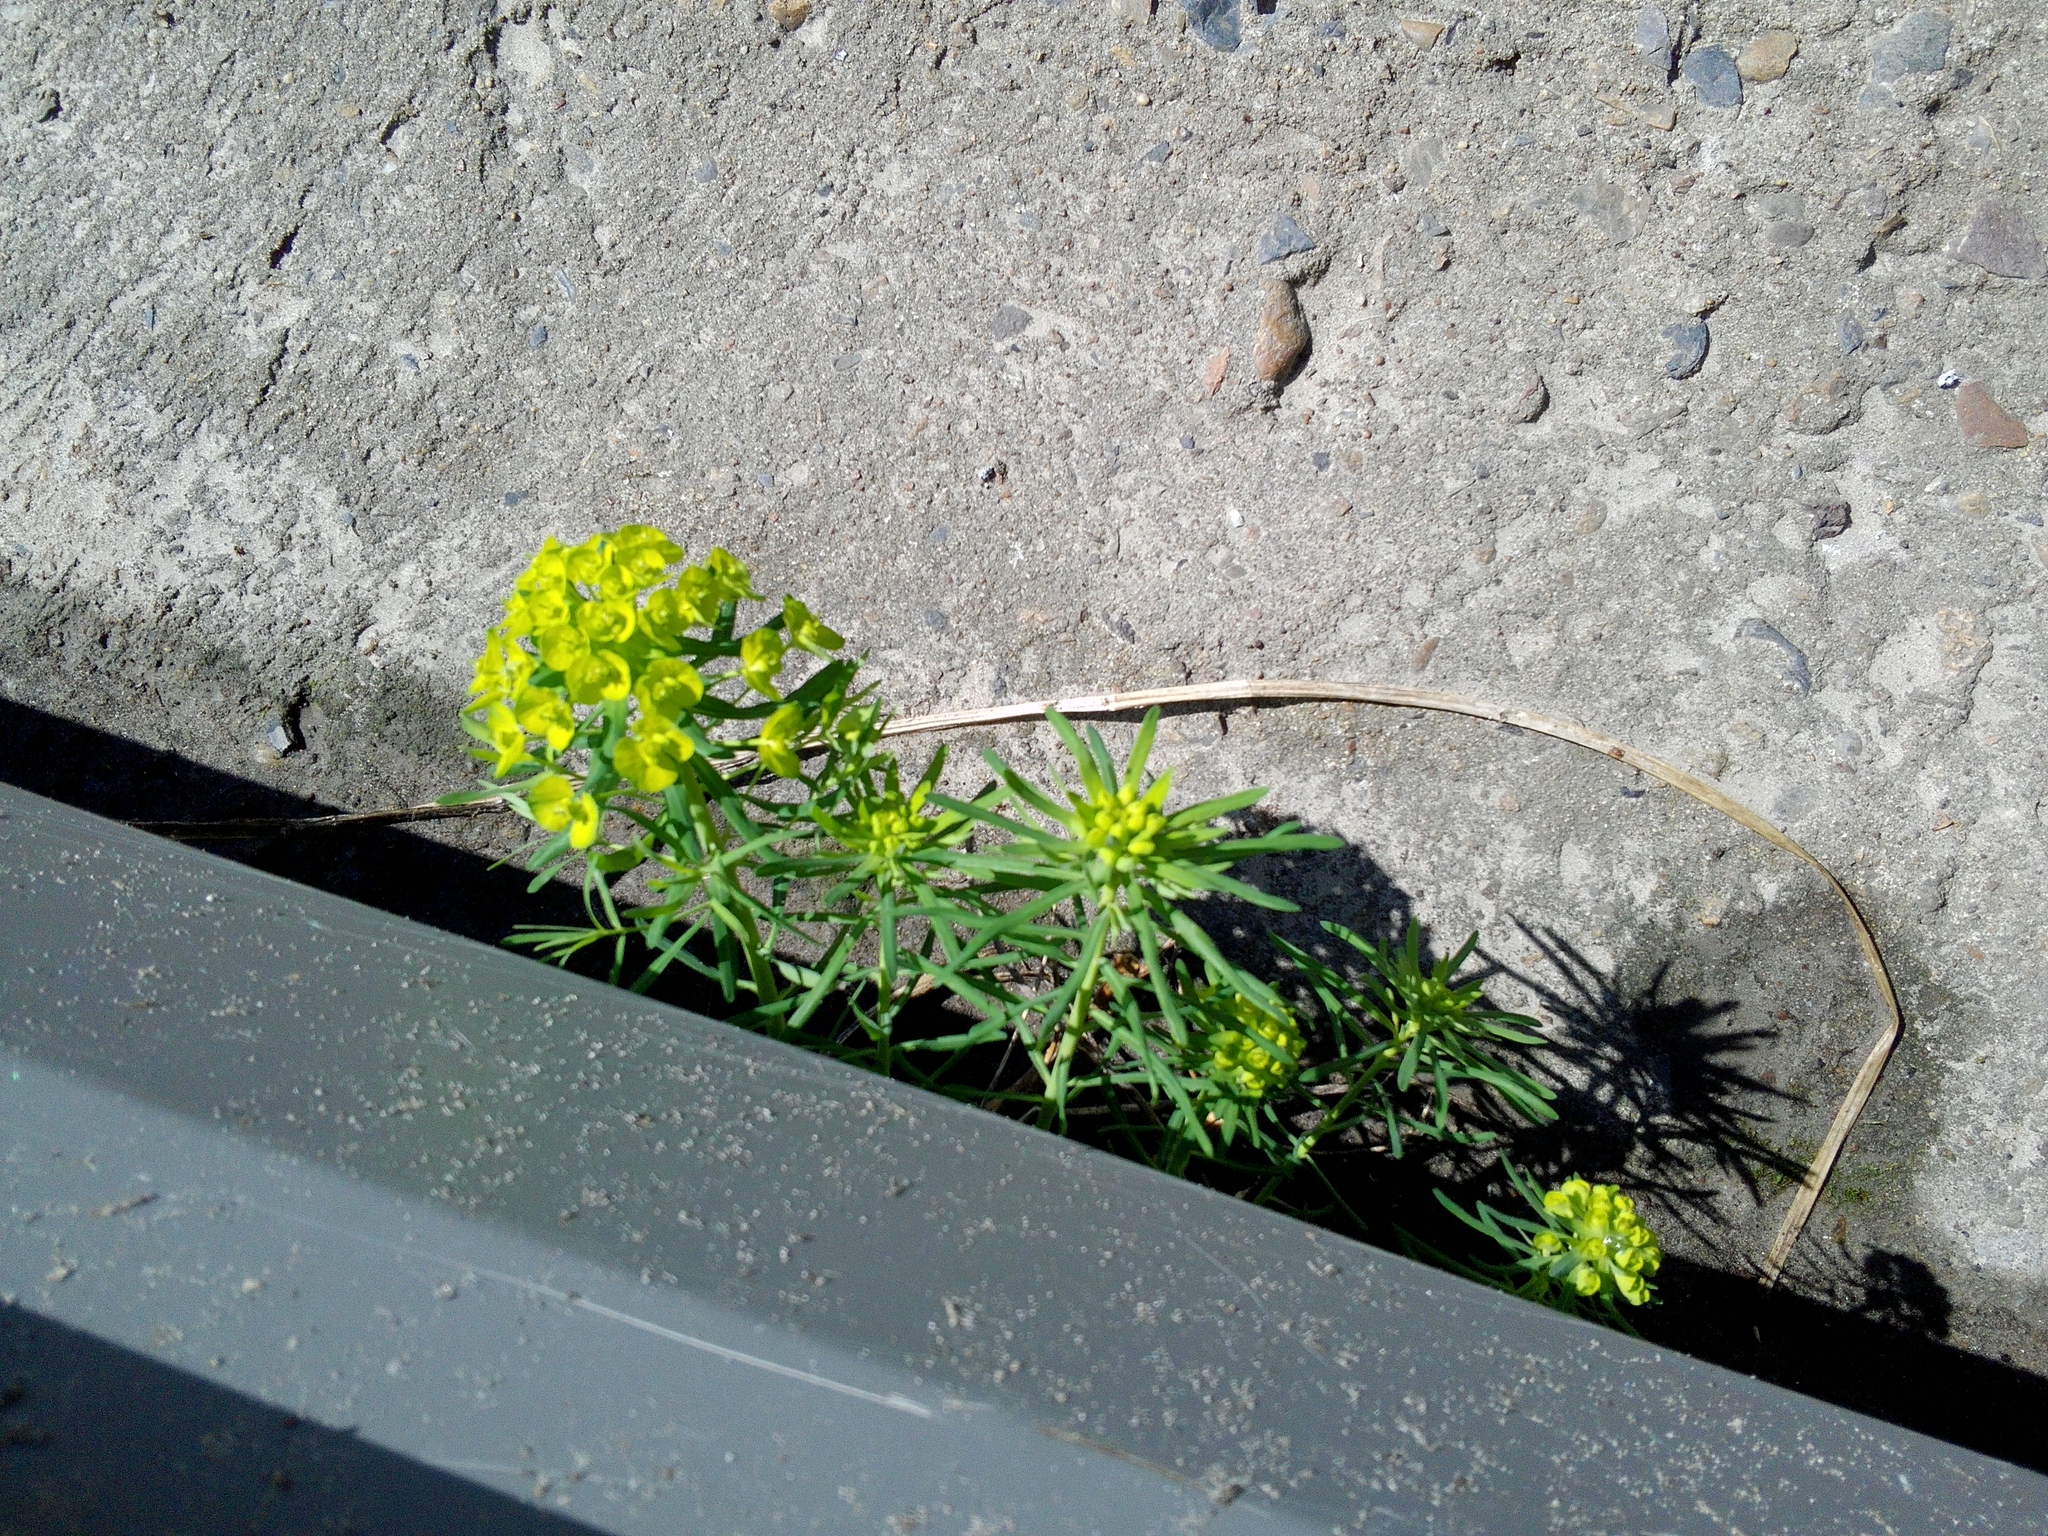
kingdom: Plantae
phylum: Tracheophyta
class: Magnoliopsida
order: Malpighiales
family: Euphorbiaceae
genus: Euphorbia
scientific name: Euphorbia cyparissias
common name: Cypress spurge
